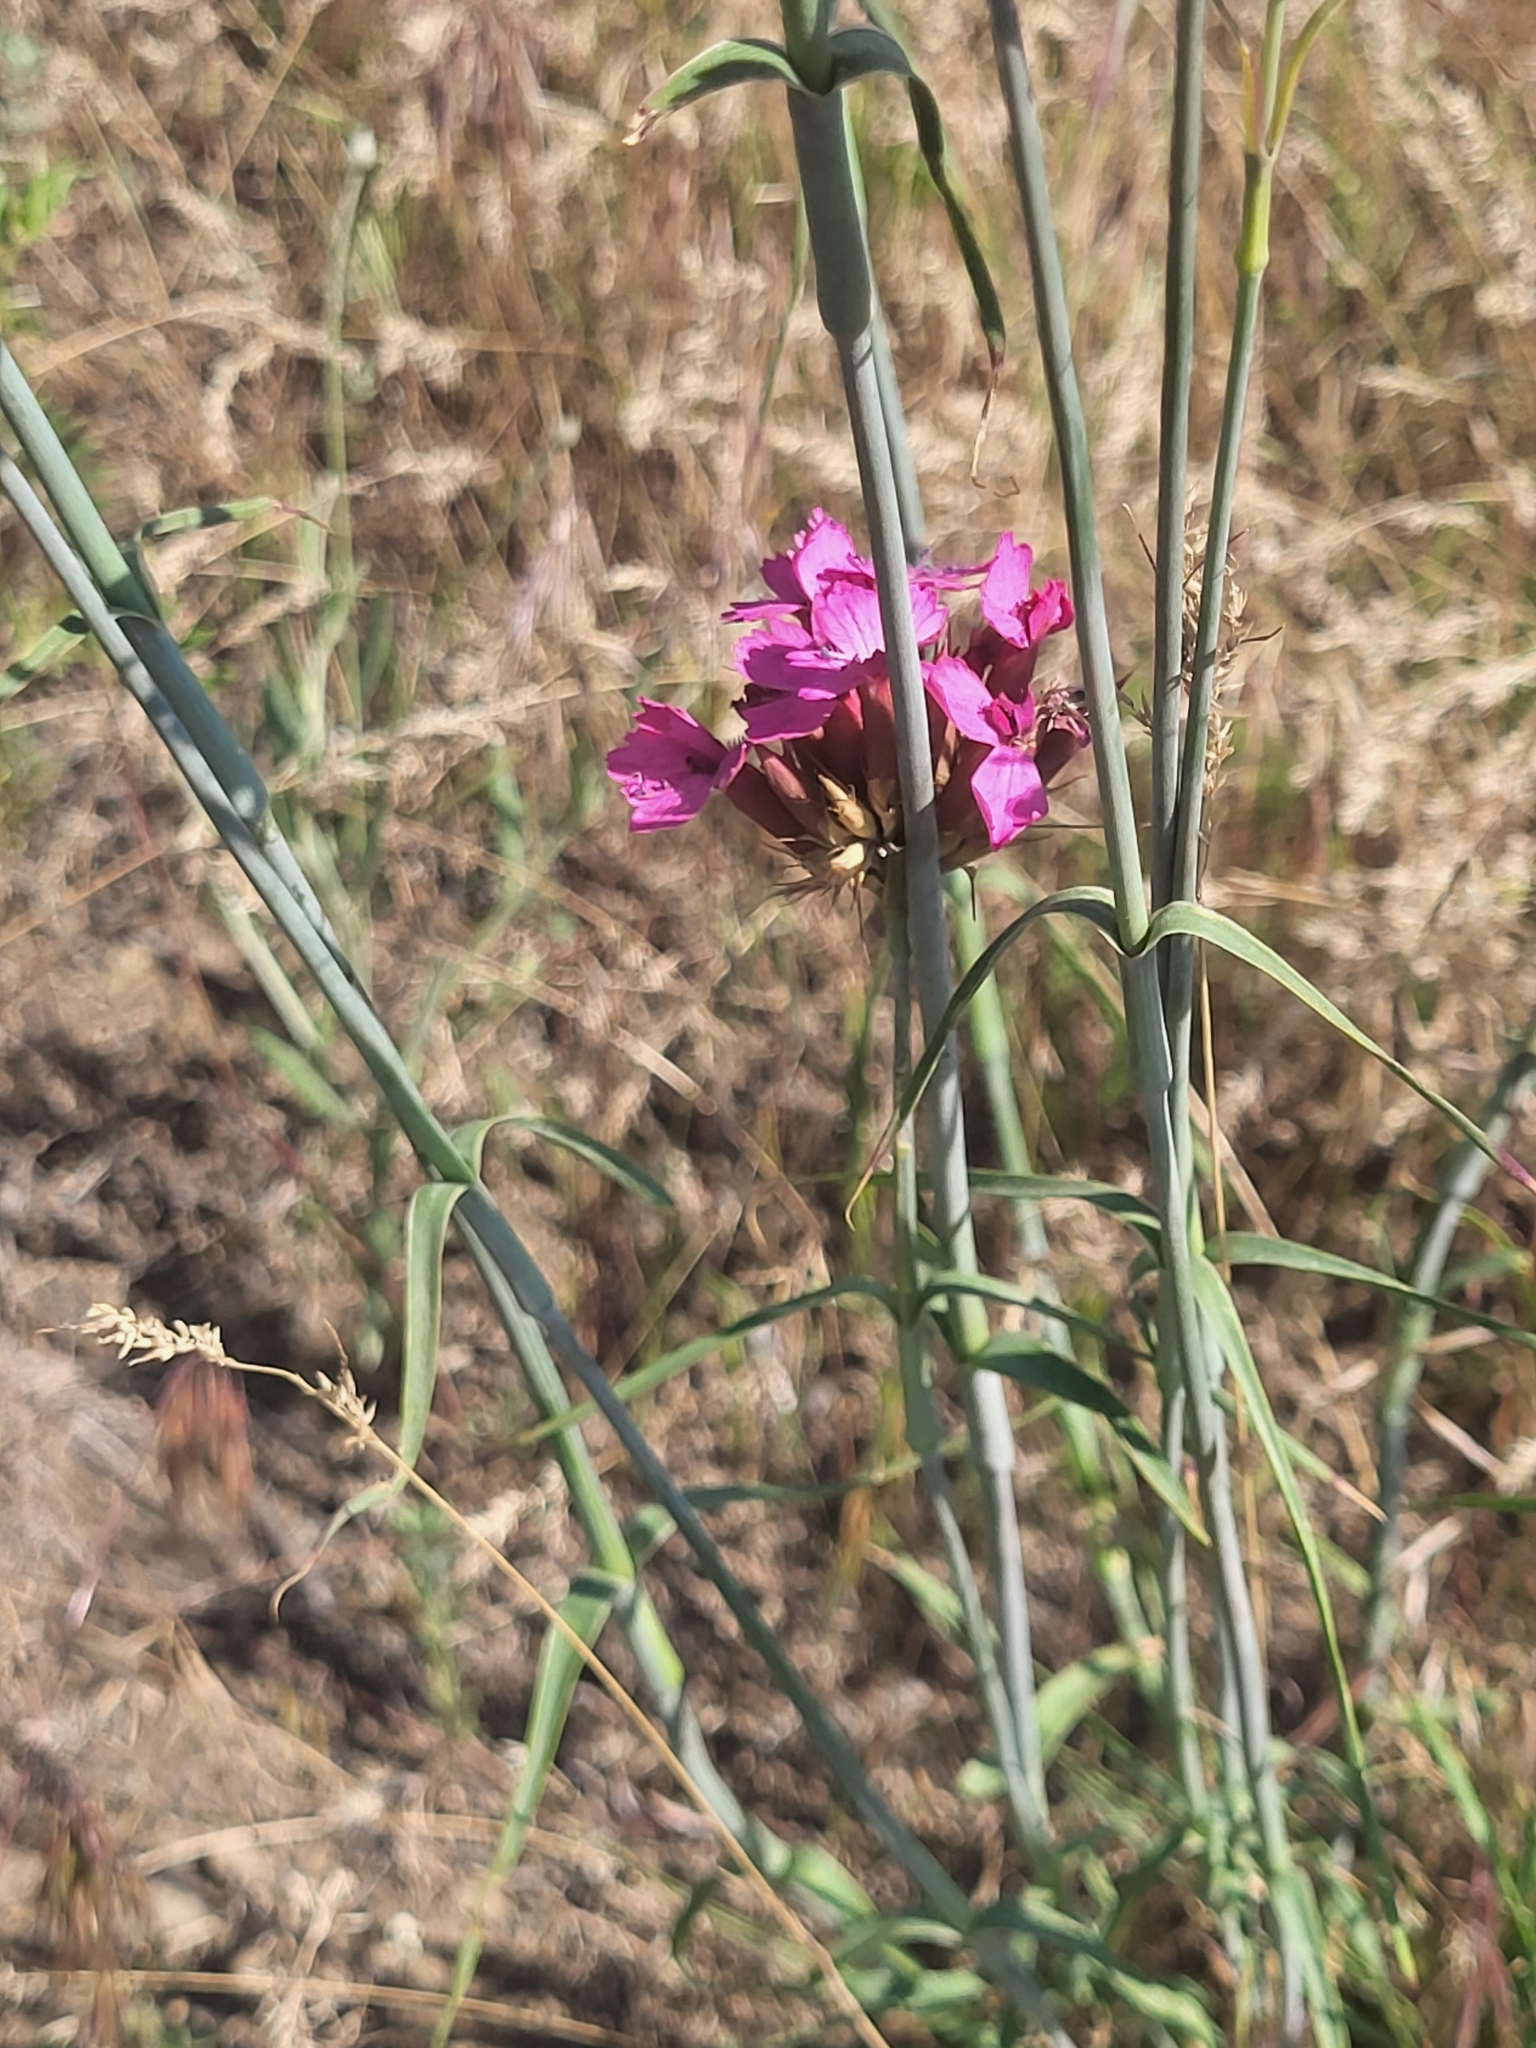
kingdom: Plantae
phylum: Tracheophyta
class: Magnoliopsida
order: Caryophyllales
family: Caryophyllaceae
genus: Dianthus
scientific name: Dianthus capitatus
